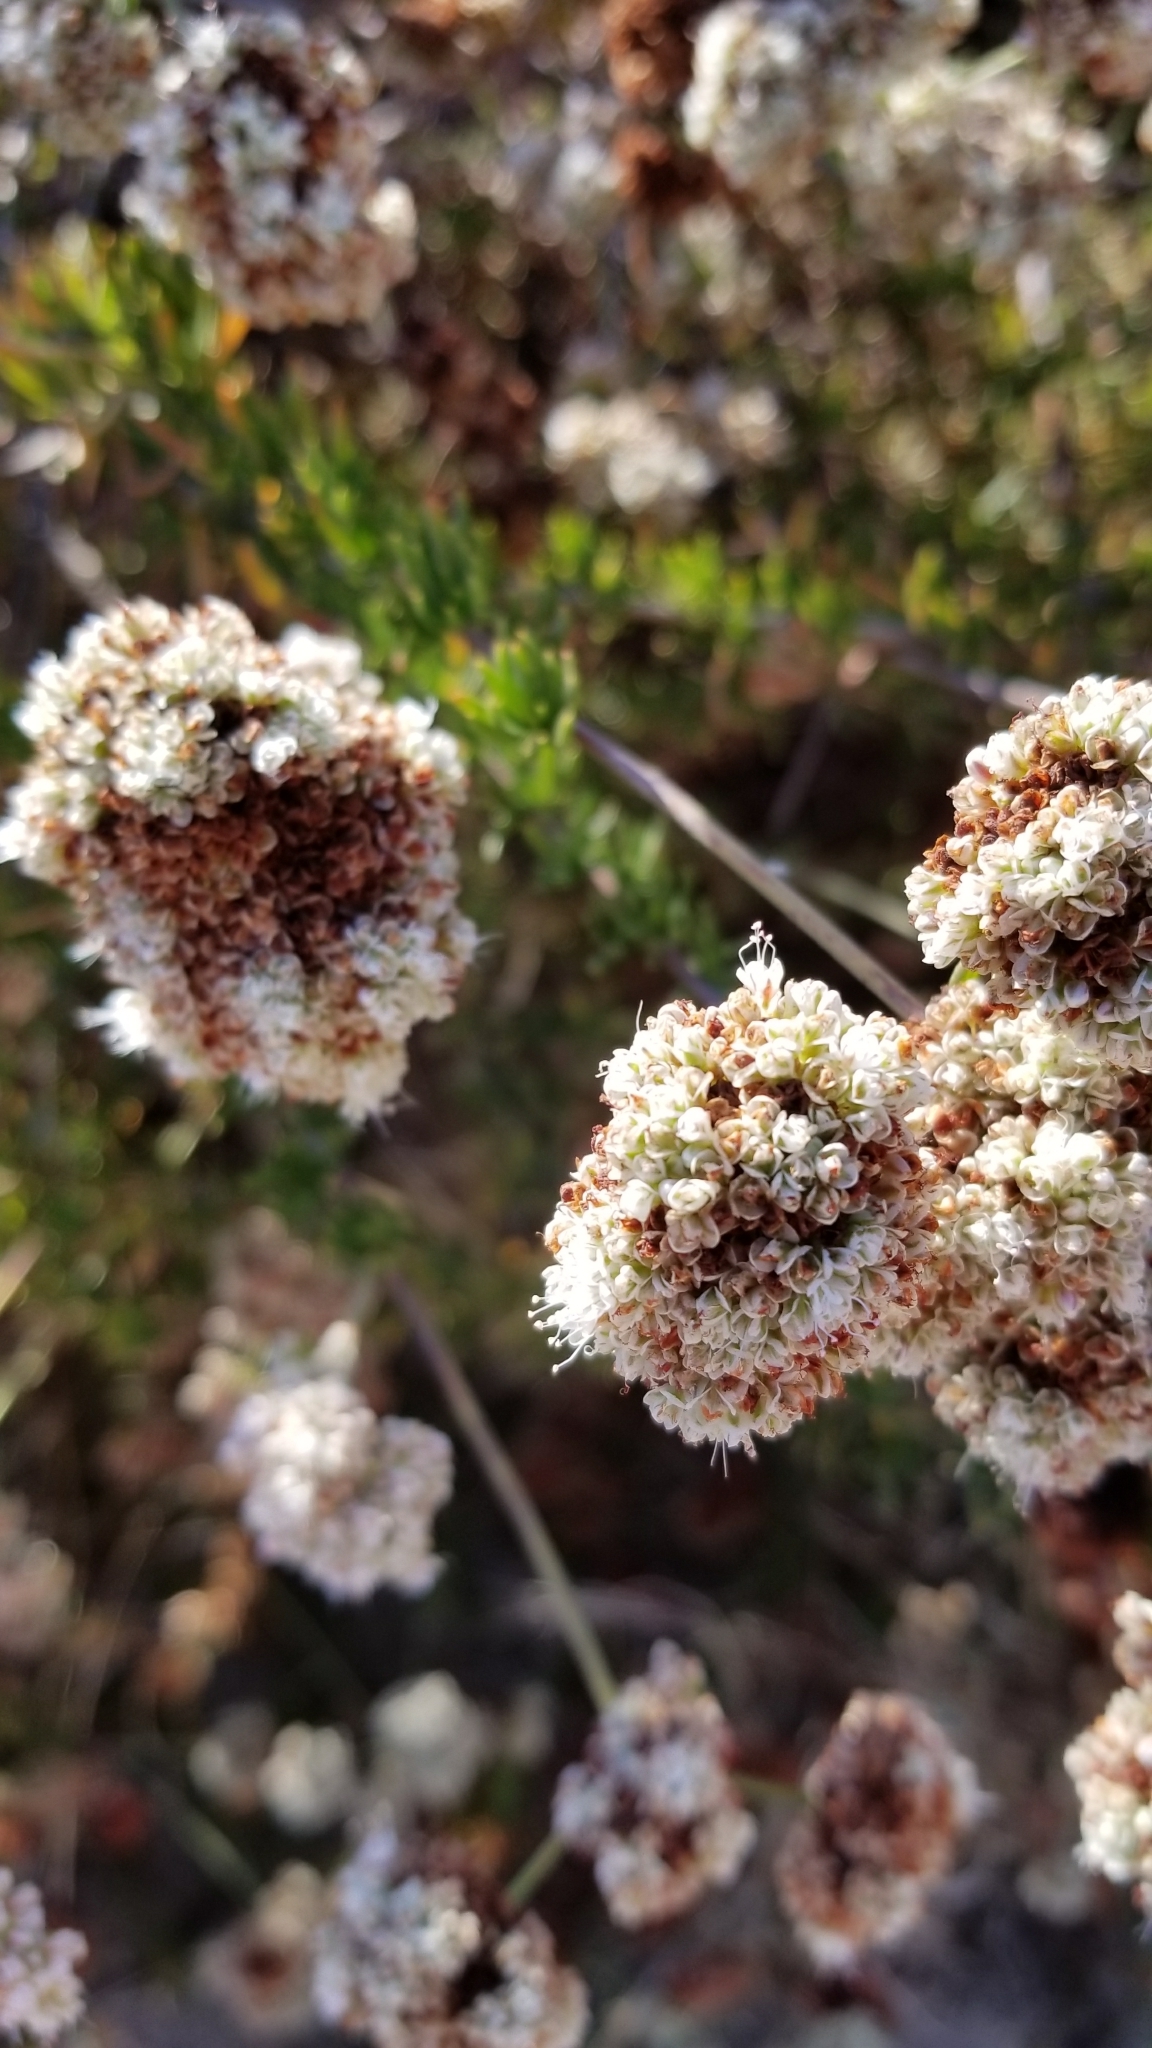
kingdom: Plantae
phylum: Tracheophyta
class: Magnoliopsida
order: Caryophyllales
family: Polygonaceae
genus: Eriogonum
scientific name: Eriogonum fasciculatum
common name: California wild buckwheat
